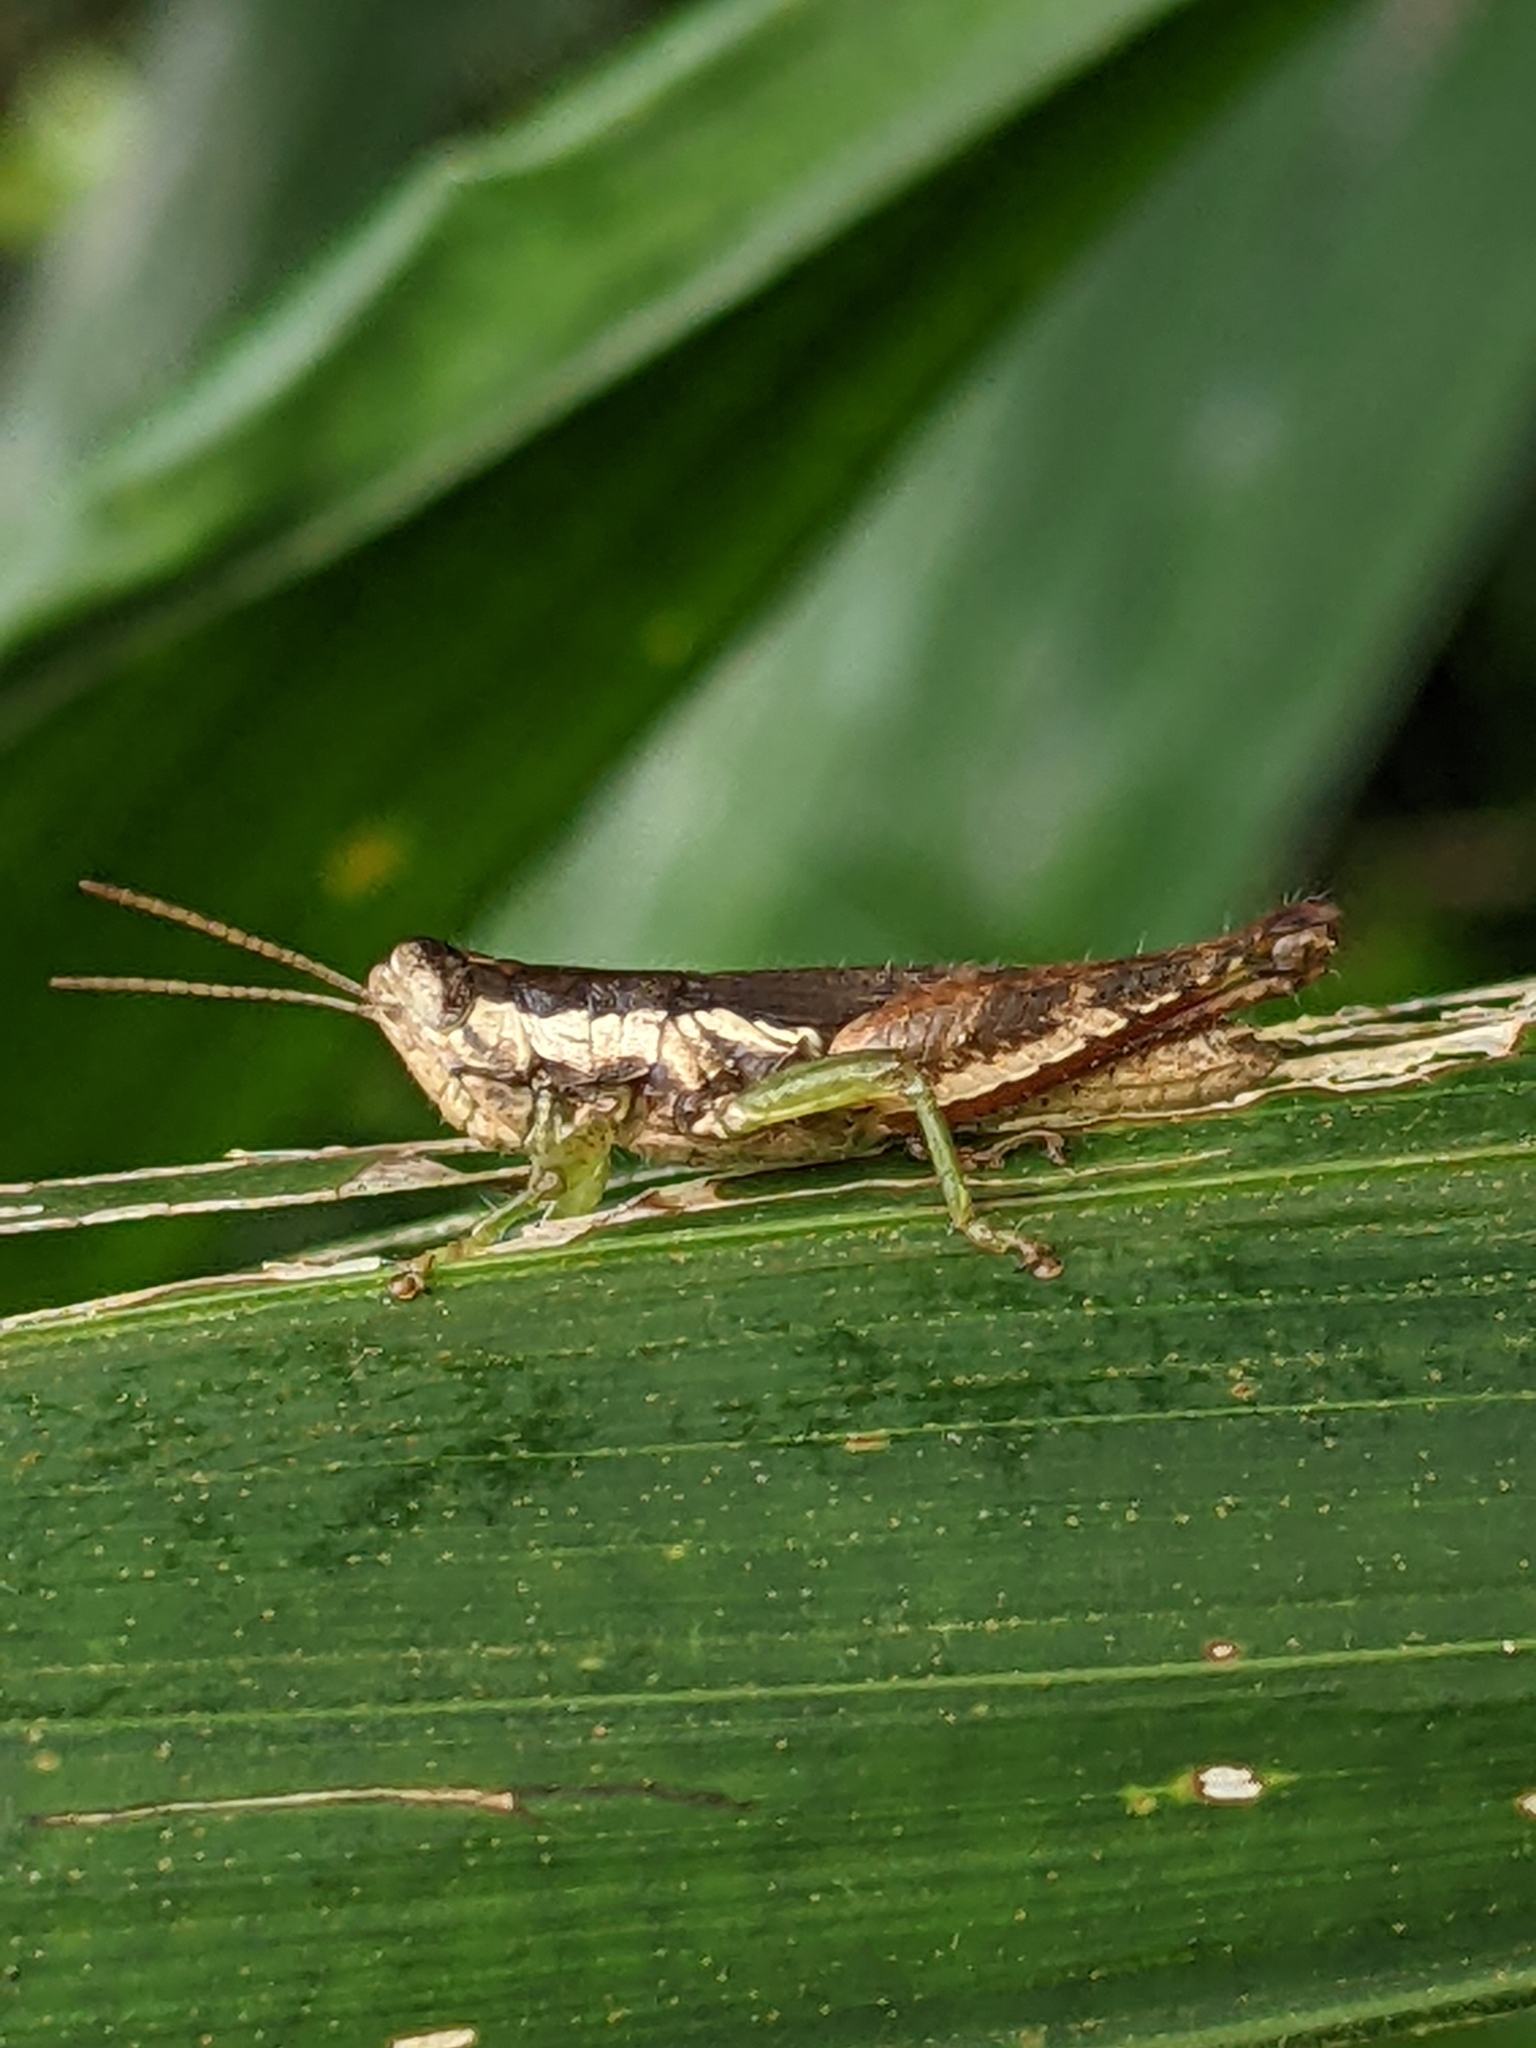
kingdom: Animalia
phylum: Arthropoda
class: Insecta
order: Orthoptera
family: Acrididae
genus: Pseudoxya
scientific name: Pseudoxya diminuta
